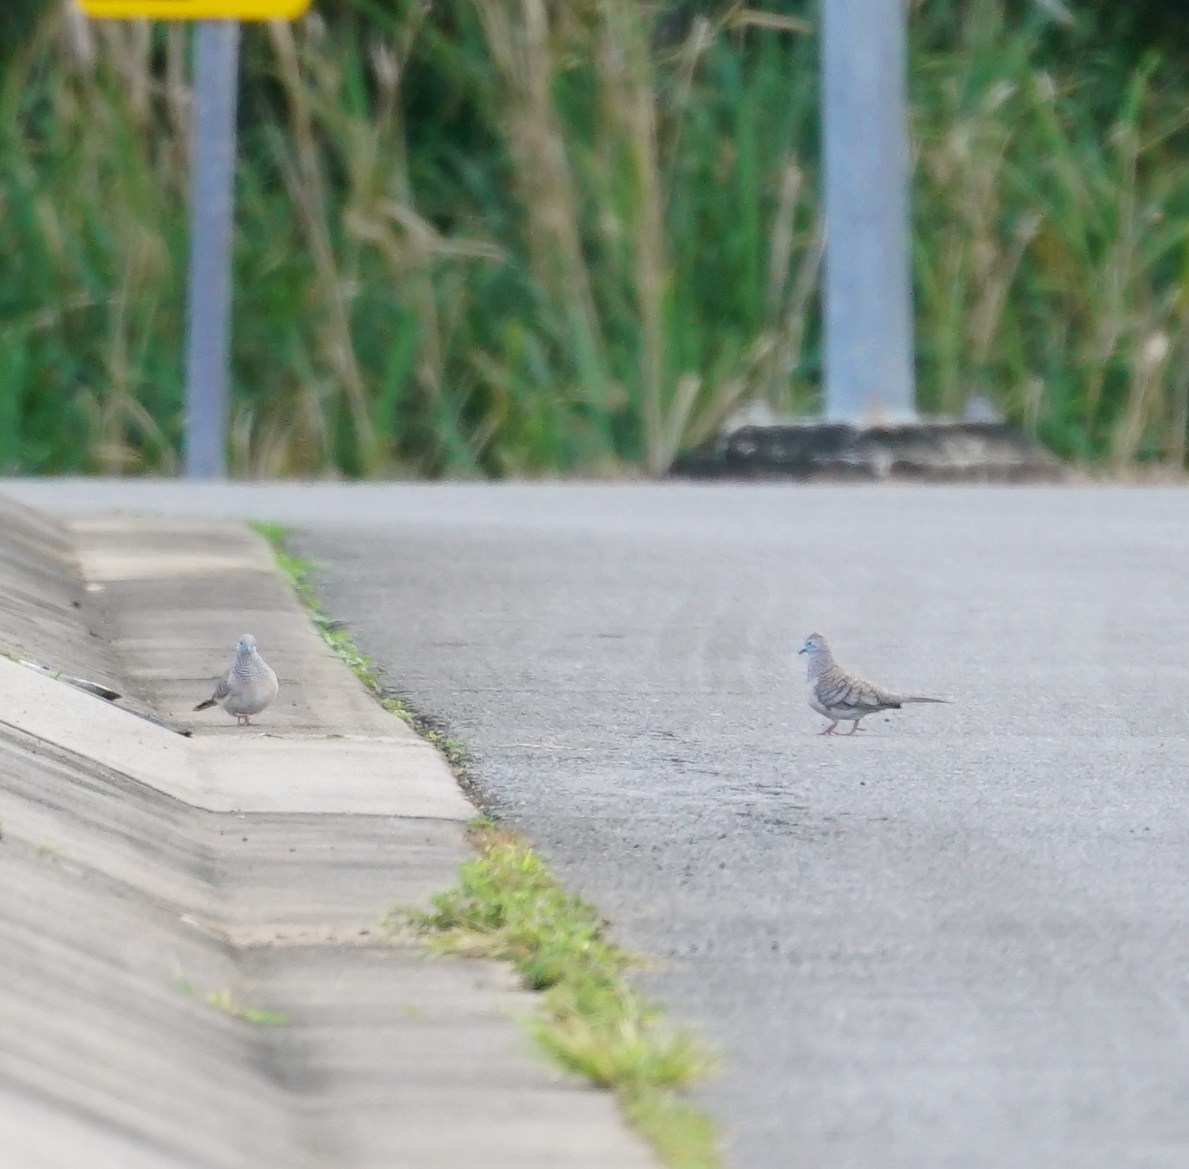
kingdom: Animalia
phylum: Chordata
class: Aves
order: Columbiformes
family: Columbidae
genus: Geopelia
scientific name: Geopelia placida
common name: Peaceful dove
